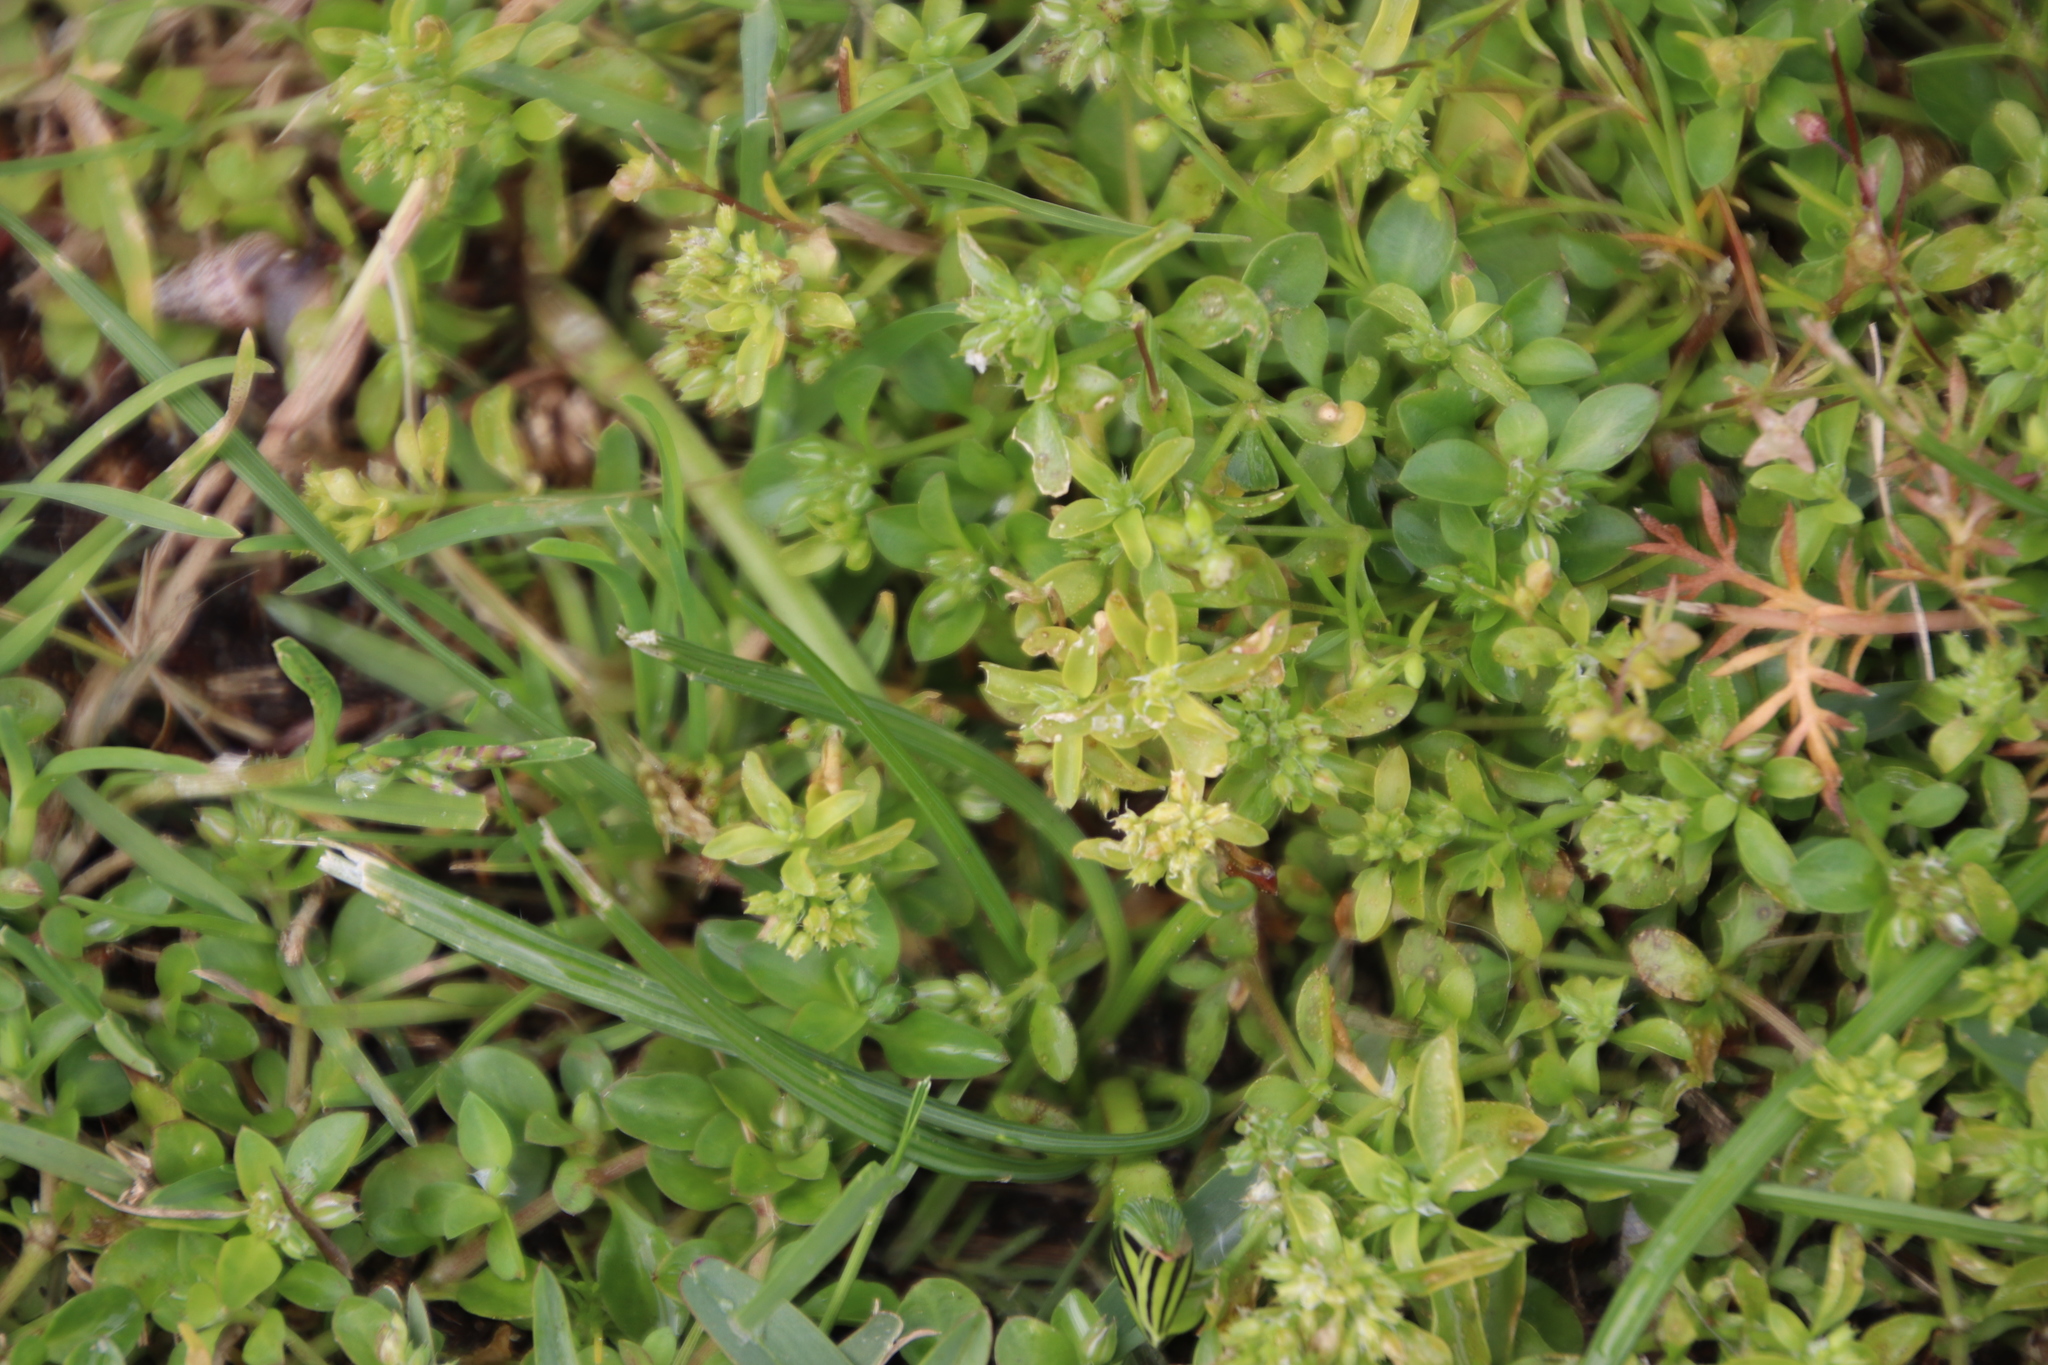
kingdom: Plantae
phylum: Tracheophyta
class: Magnoliopsida
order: Caryophyllales
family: Caryophyllaceae
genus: Polycarpon
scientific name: Polycarpon tetraphyllum
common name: Four-leaved all-seed
